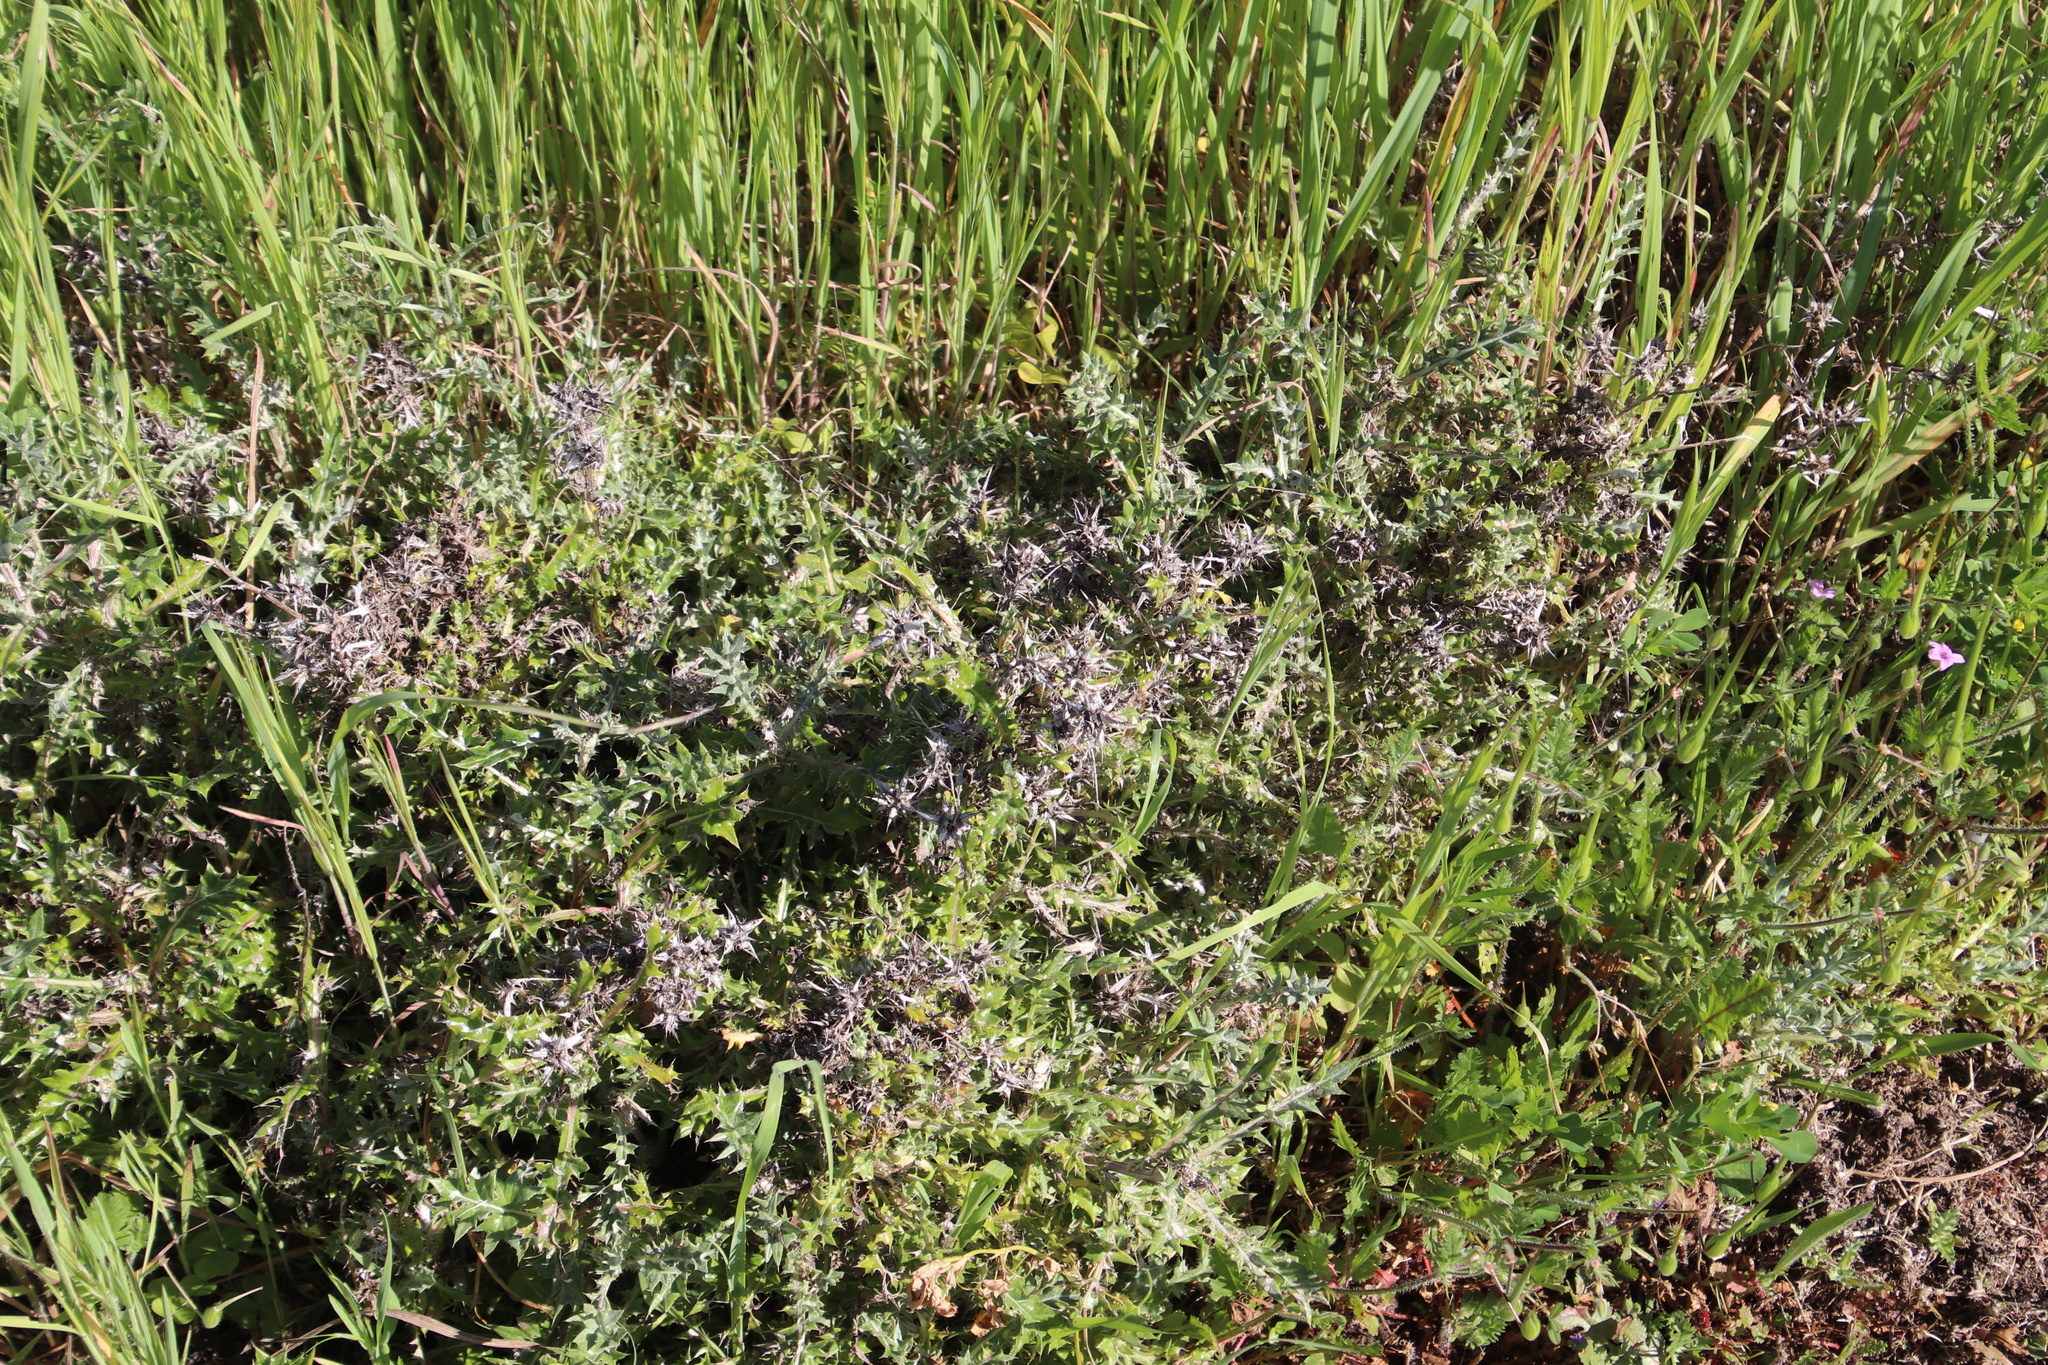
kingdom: Plantae
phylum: Tracheophyta
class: Magnoliopsida
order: Asterales
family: Asteraceae
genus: Berkheya
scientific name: Berkheya rigida
